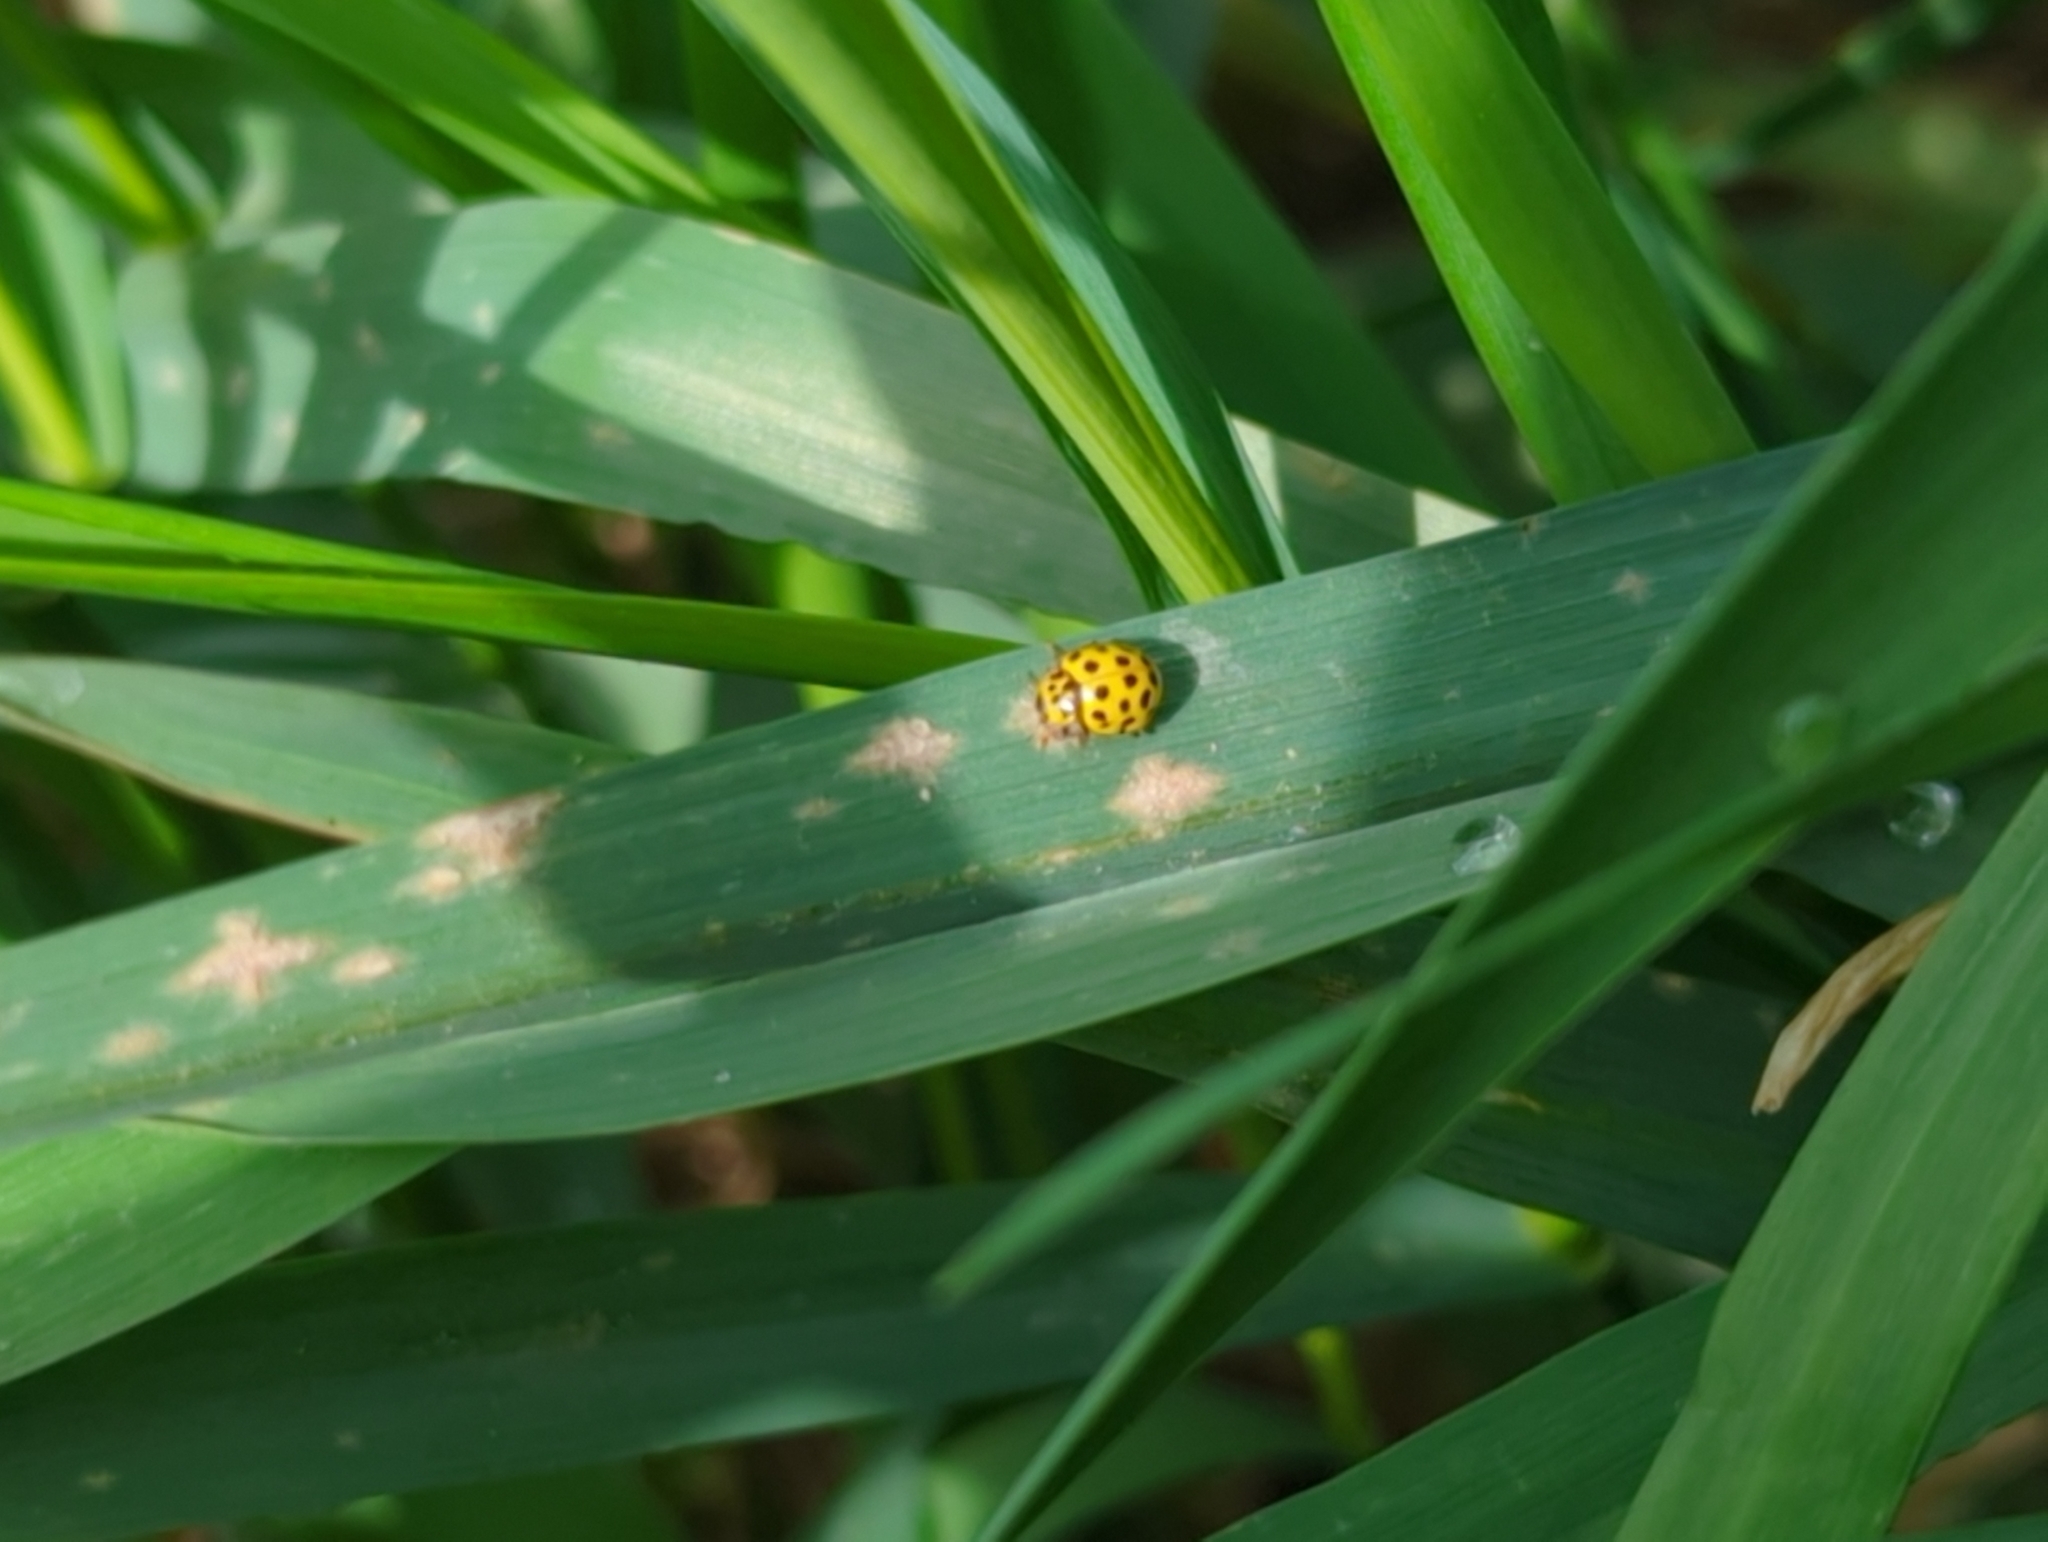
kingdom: Animalia
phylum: Arthropoda
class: Insecta
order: Coleoptera
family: Coccinellidae
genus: Psyllobora
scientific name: Psyllobora vigintiduopunctata
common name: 22-spot ladybird
